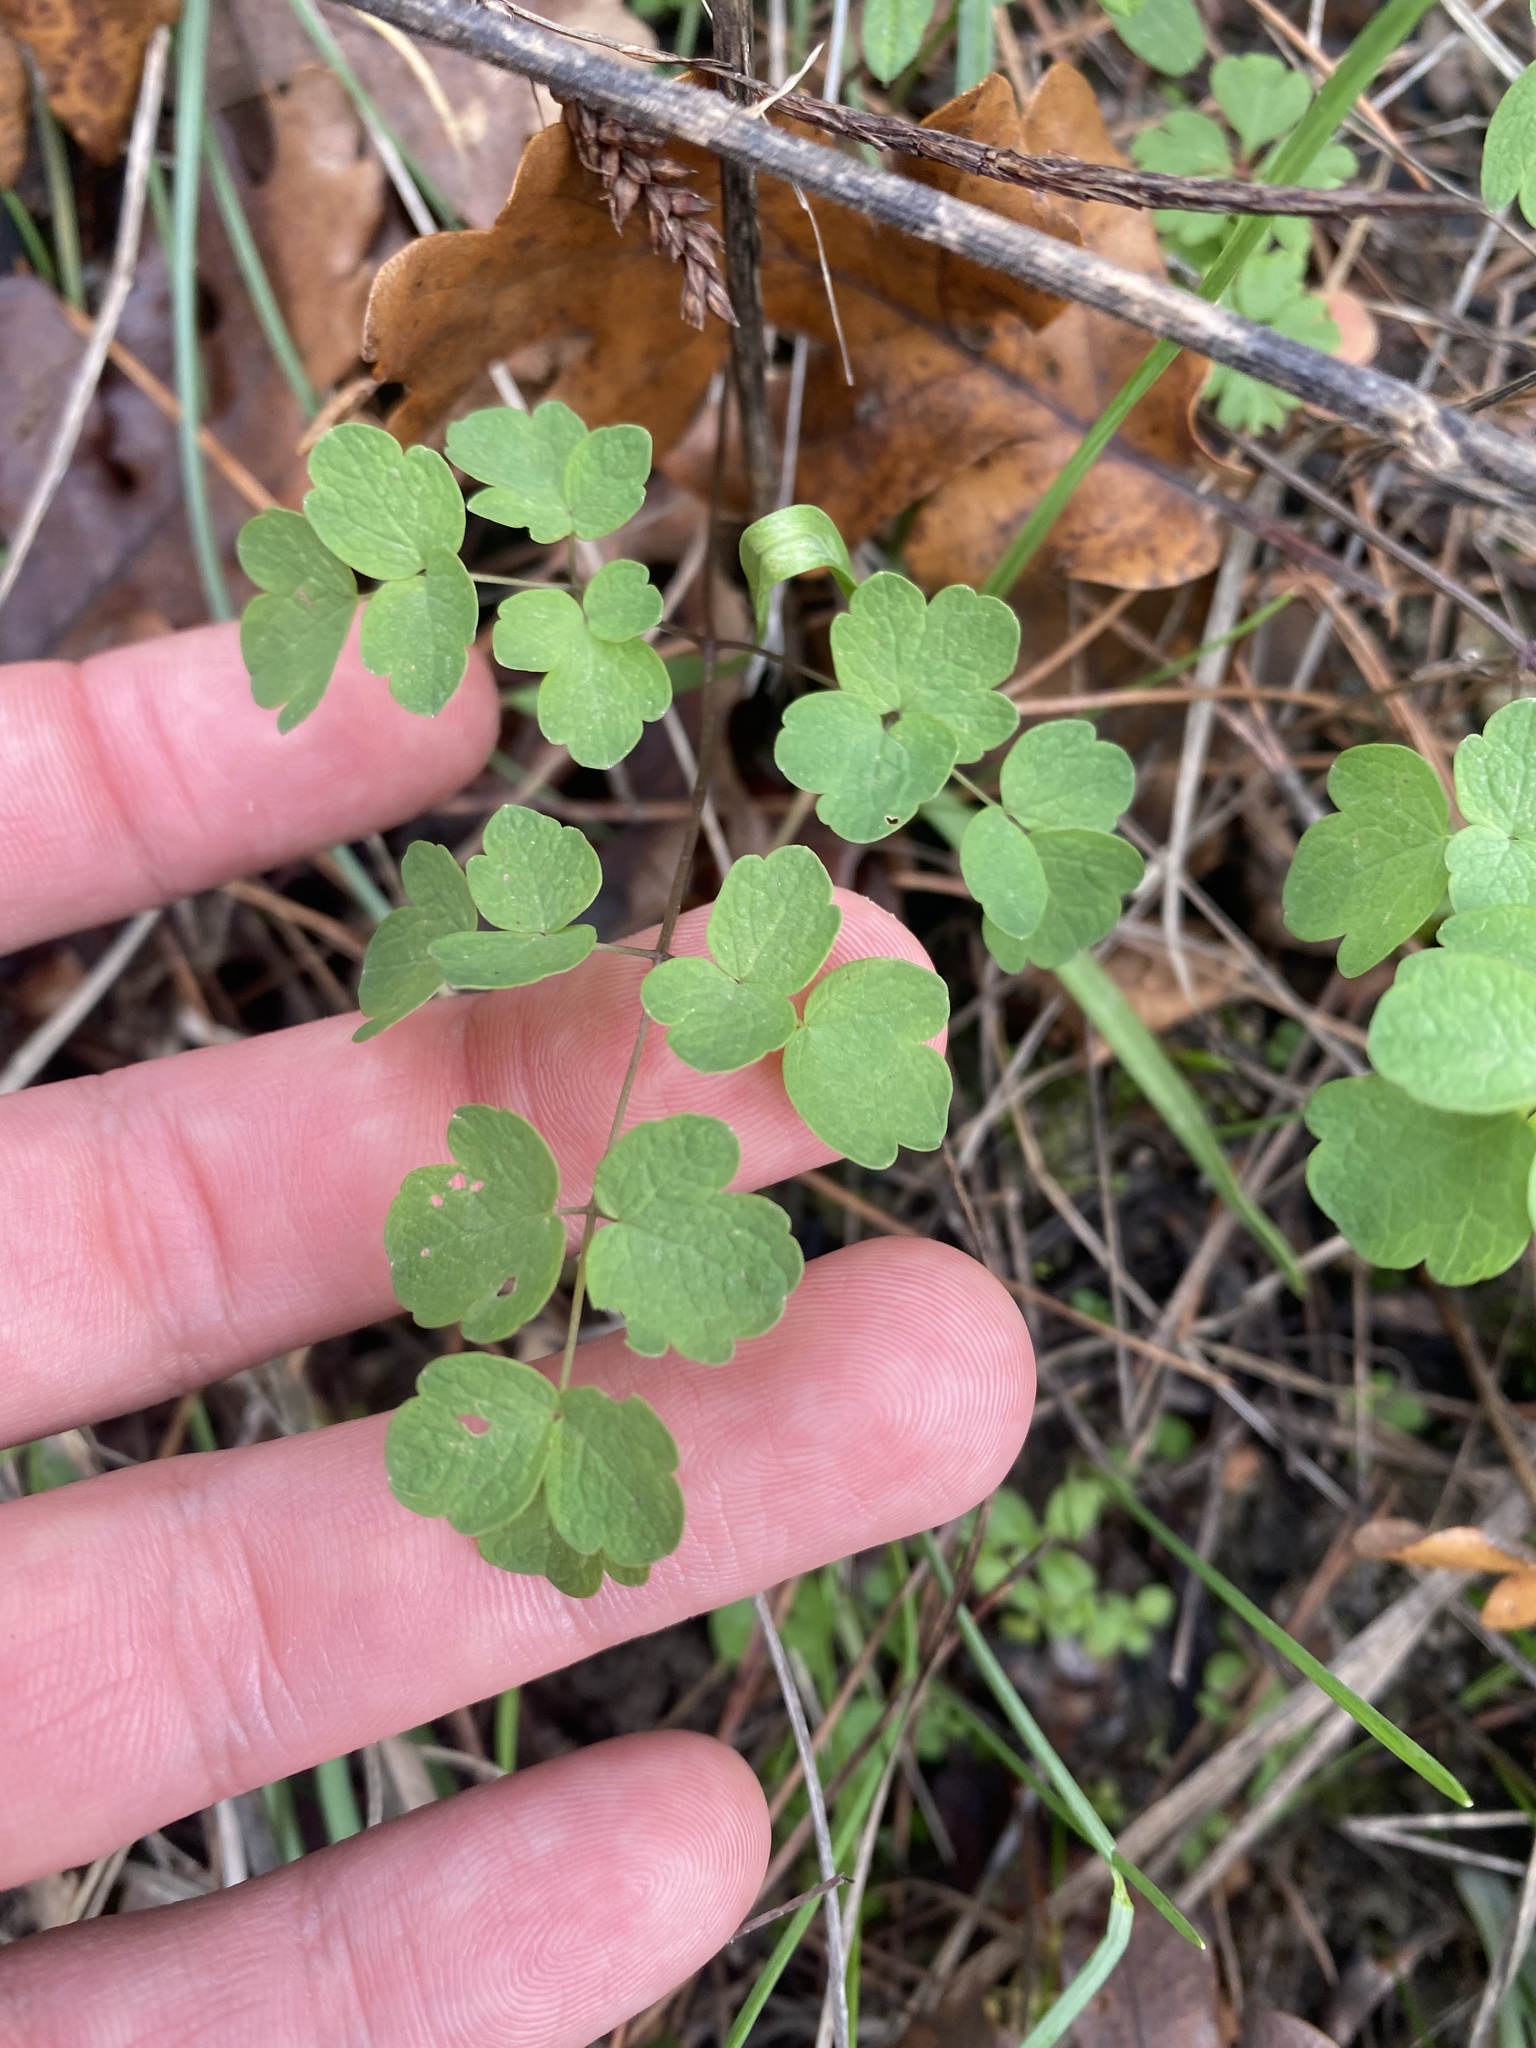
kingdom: Plantae
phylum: Tracheophyta
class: Magnoliopsida
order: Ranunculales
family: Ranunculaceae
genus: Thalictrum
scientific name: Thalictrum minus
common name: Lesser meadow-rue
